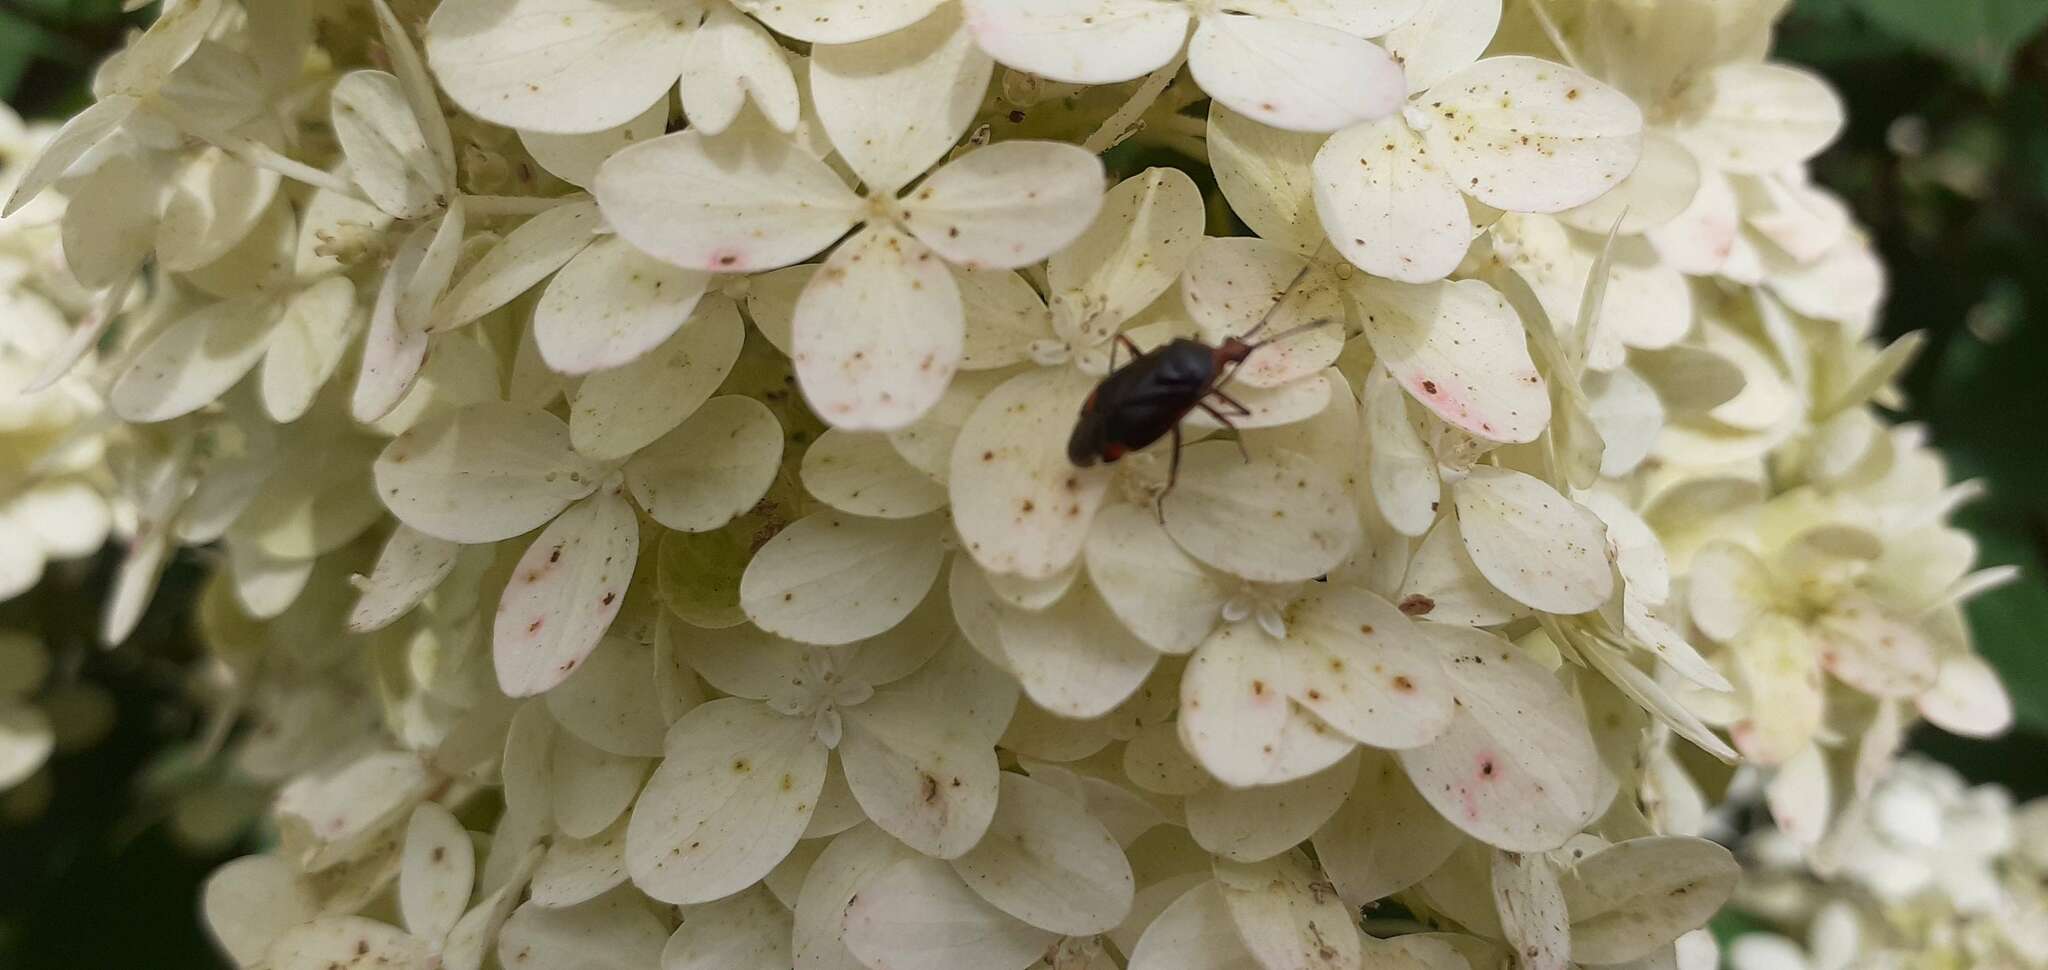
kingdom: Animalia
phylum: Arthropoda
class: Insecta
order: Hemiptera
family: Miridae
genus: Deraeocoris
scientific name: Deraeocoris ruber
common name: Plant bug
